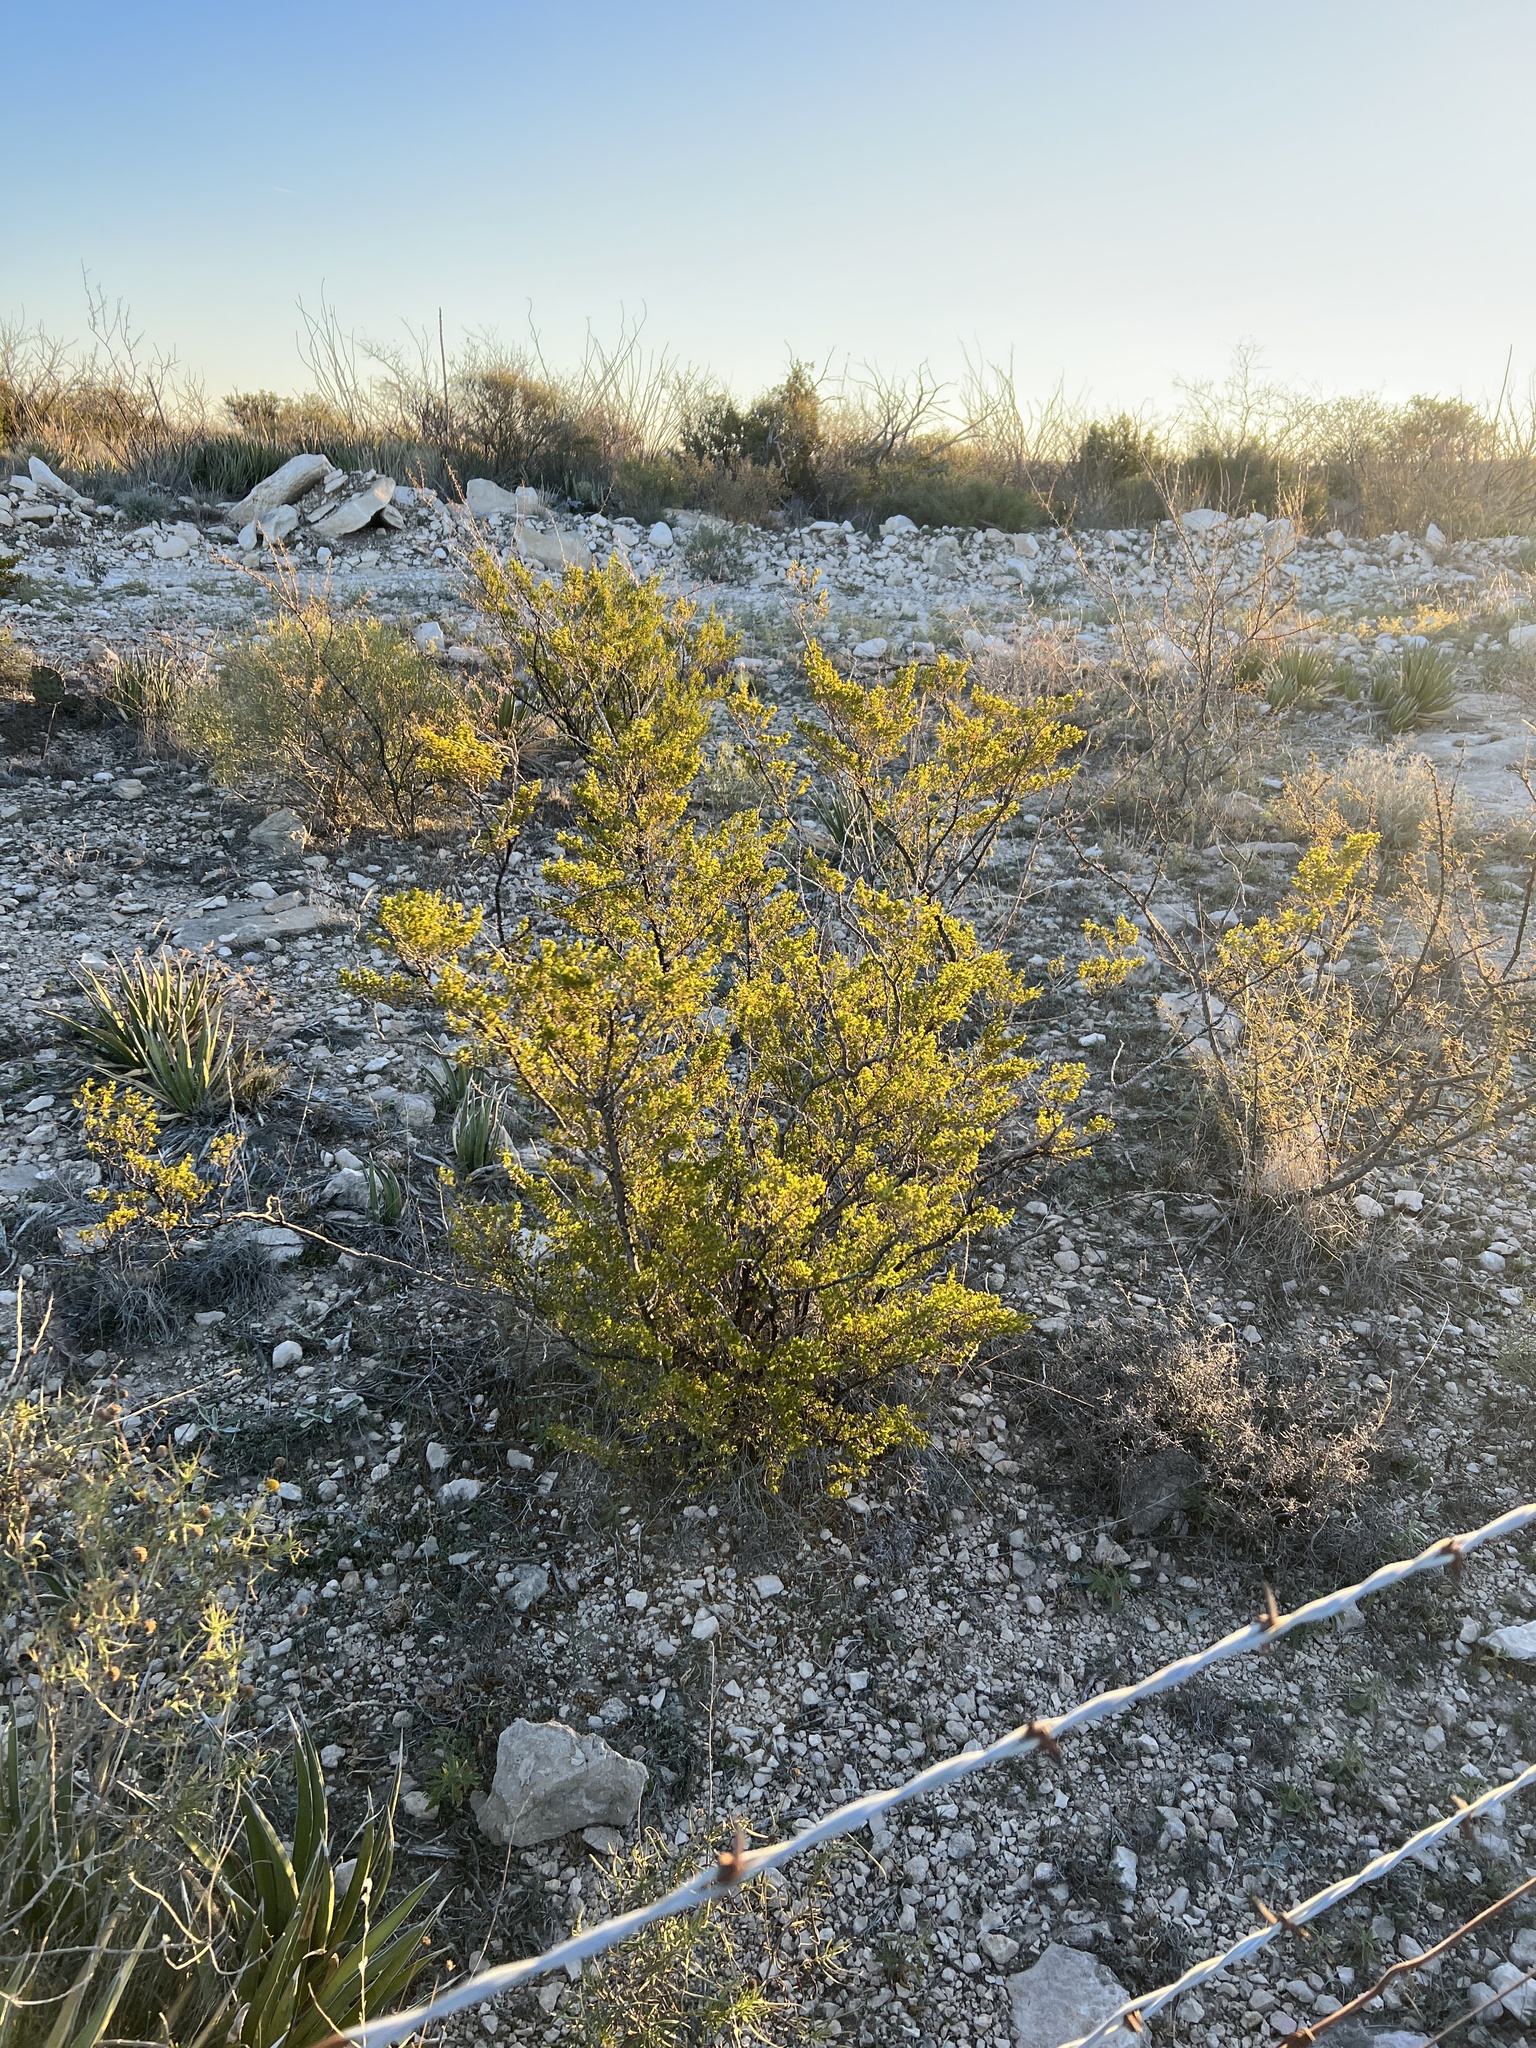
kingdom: Plantae
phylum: Tracheophyta
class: Magnoliopsida
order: Zygophyllales
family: Zygophyllaceae
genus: Larrea
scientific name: Larrea tridentata
